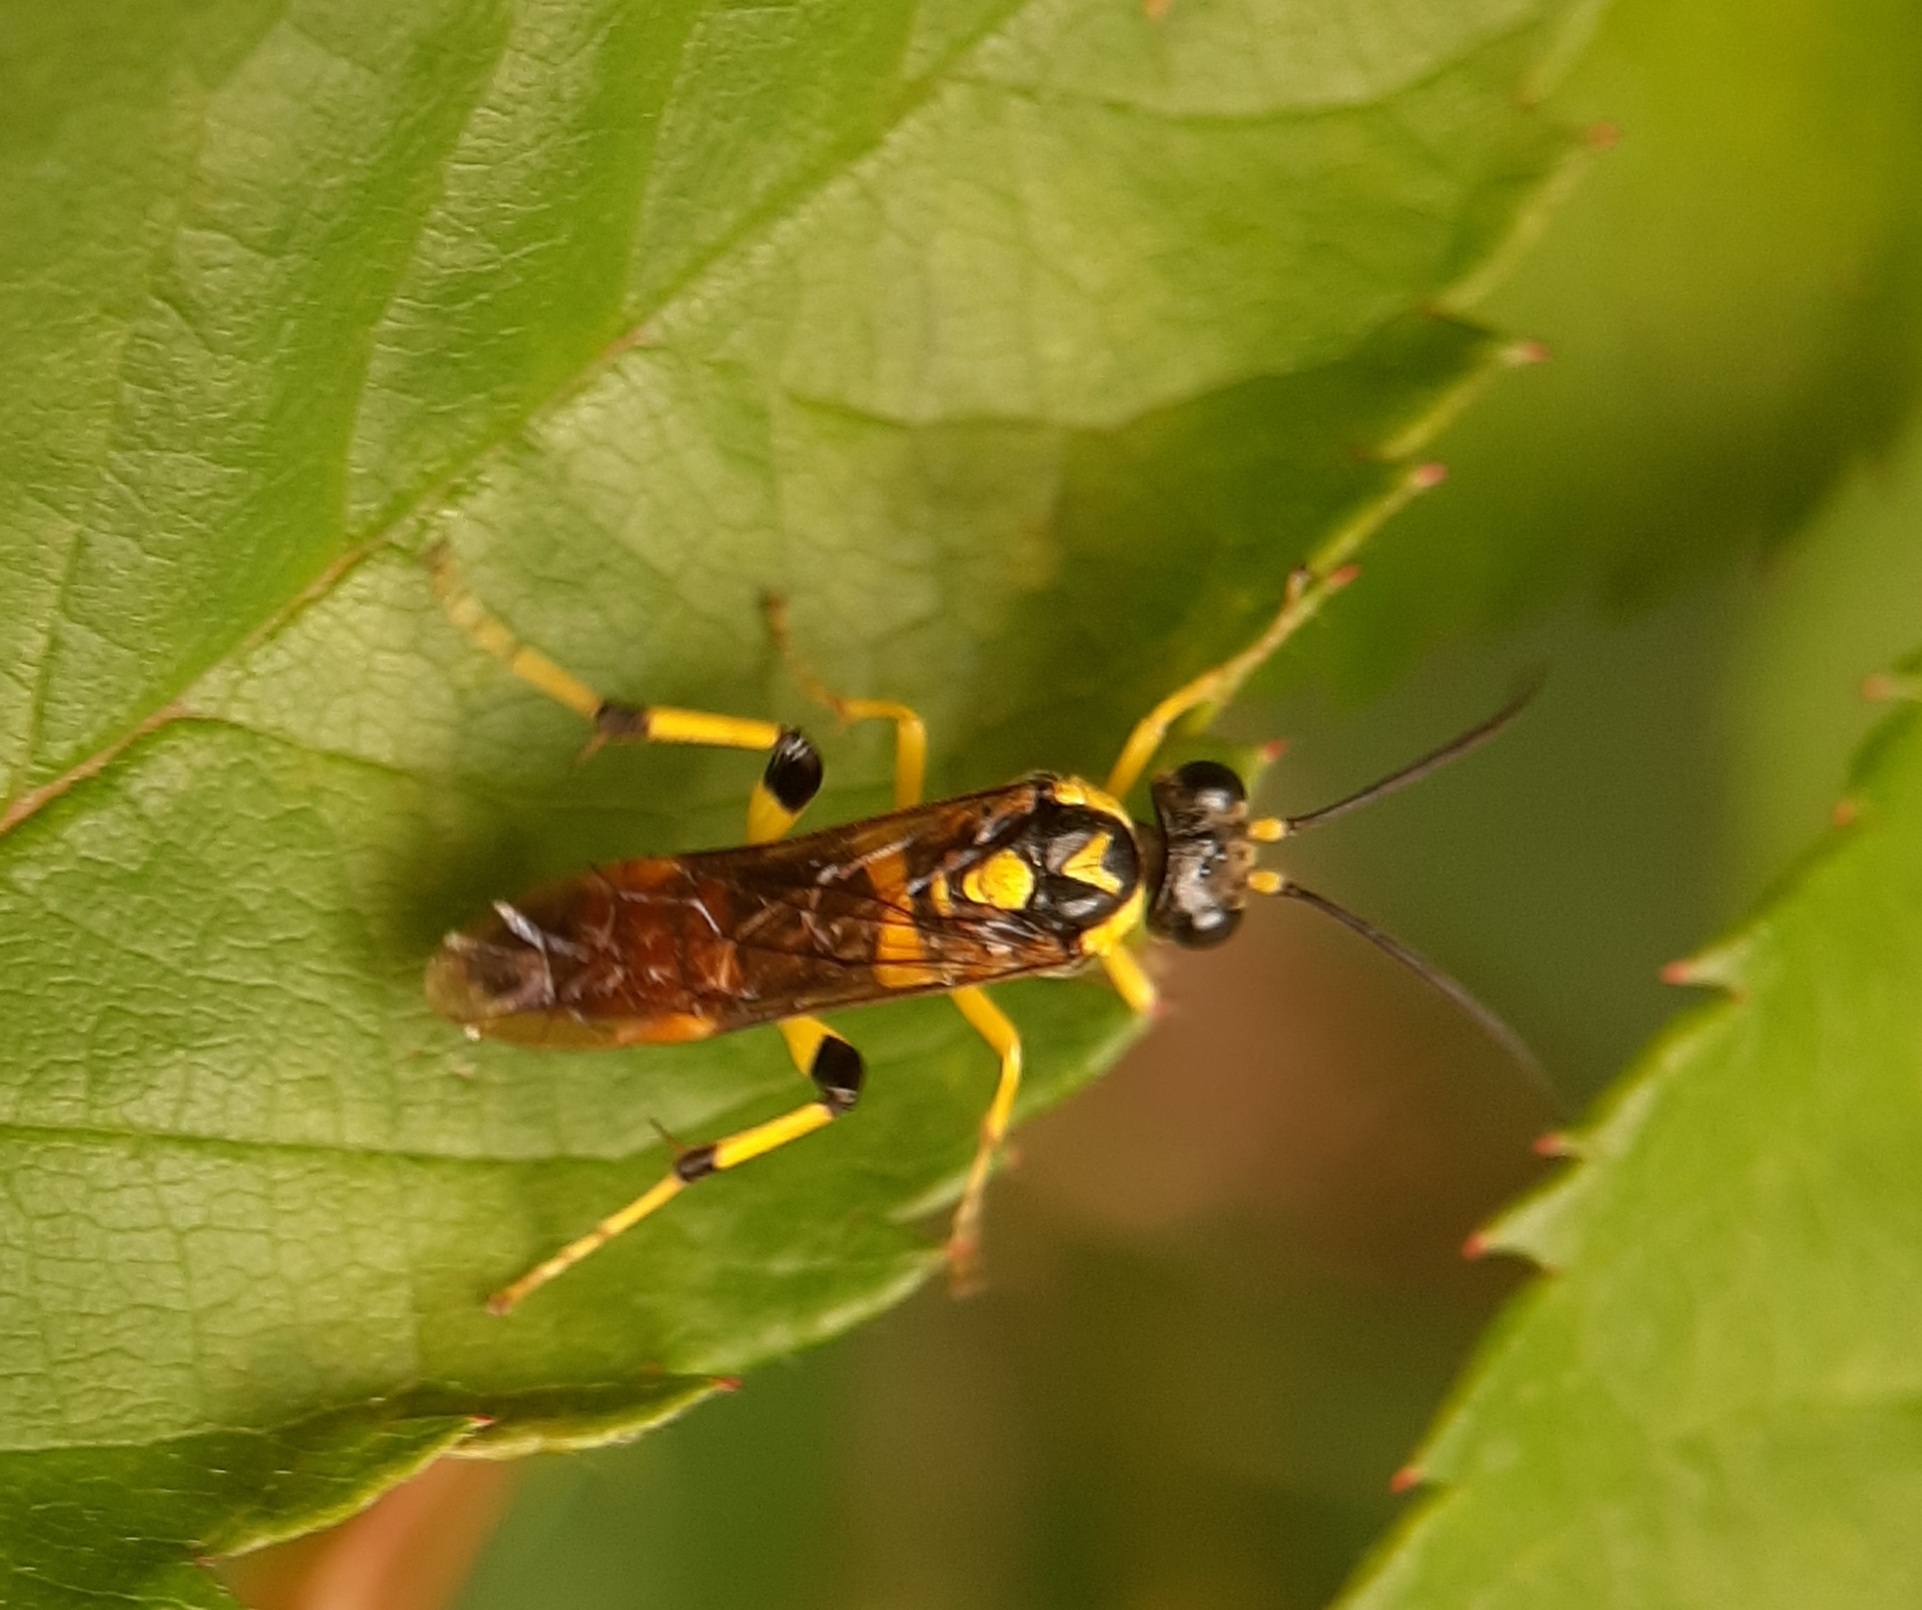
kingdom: Animalia
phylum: Arthropoda
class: Insecta
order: Hymenoptera
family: Tenthredinidae
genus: Macrophya
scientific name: Macrophya formosa
